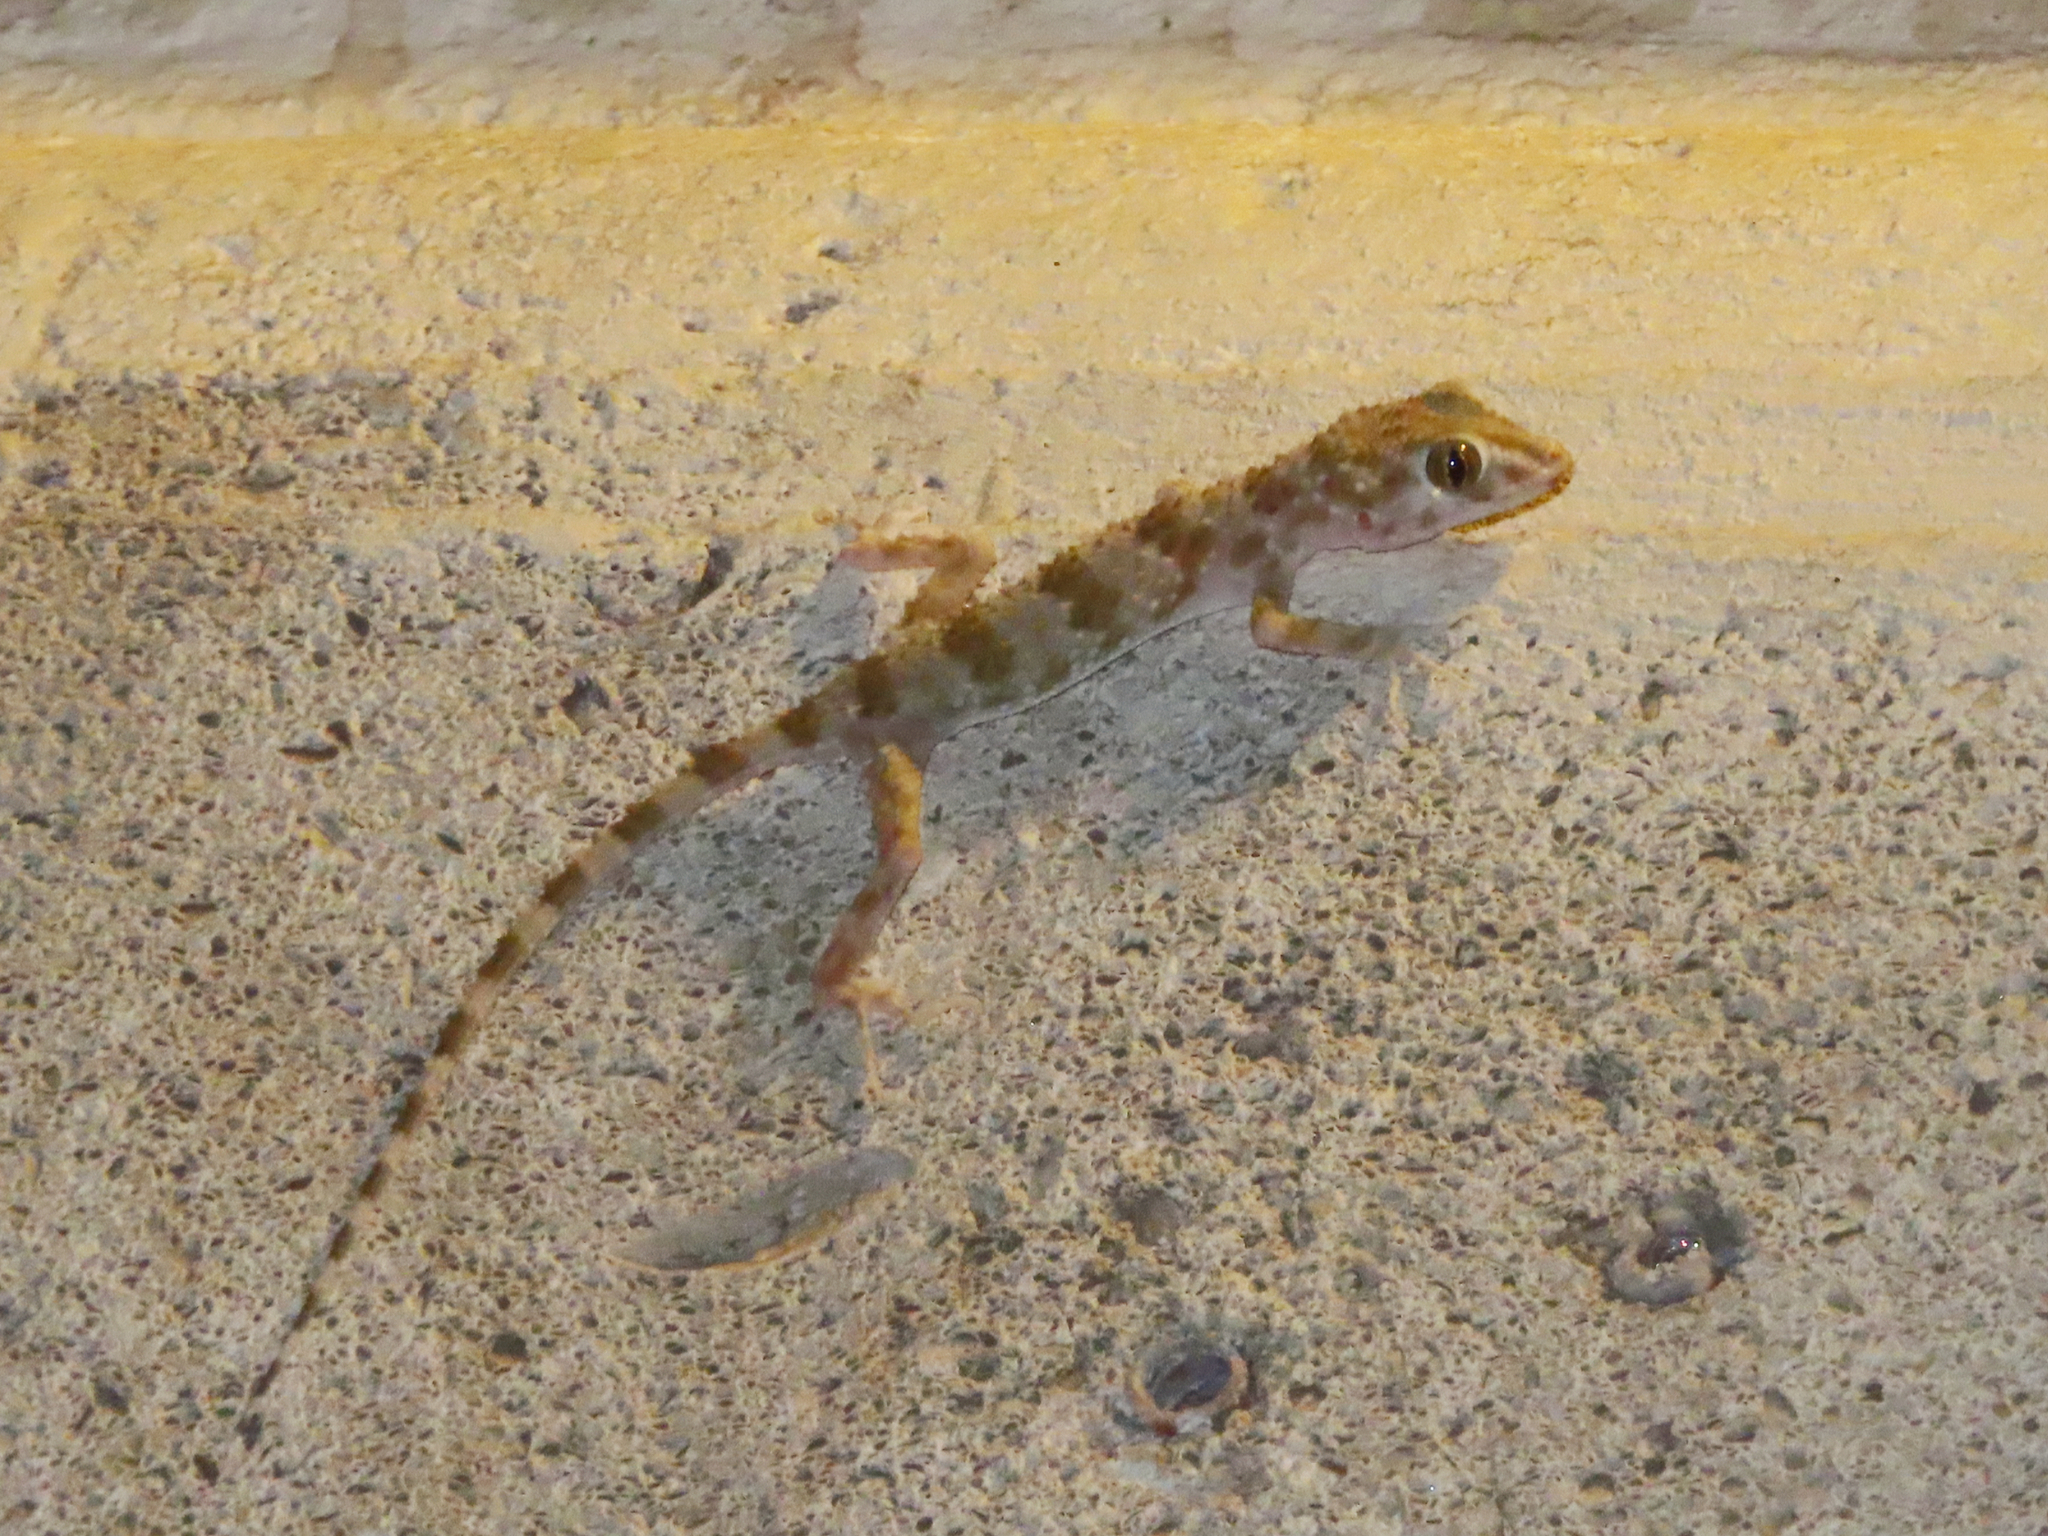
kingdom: Animalia
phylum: Chordata
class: Squamata
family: Gekkonidae
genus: Tenuidactylus
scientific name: Tenuidactylus caspius
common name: Caspian bent-toed gecko
